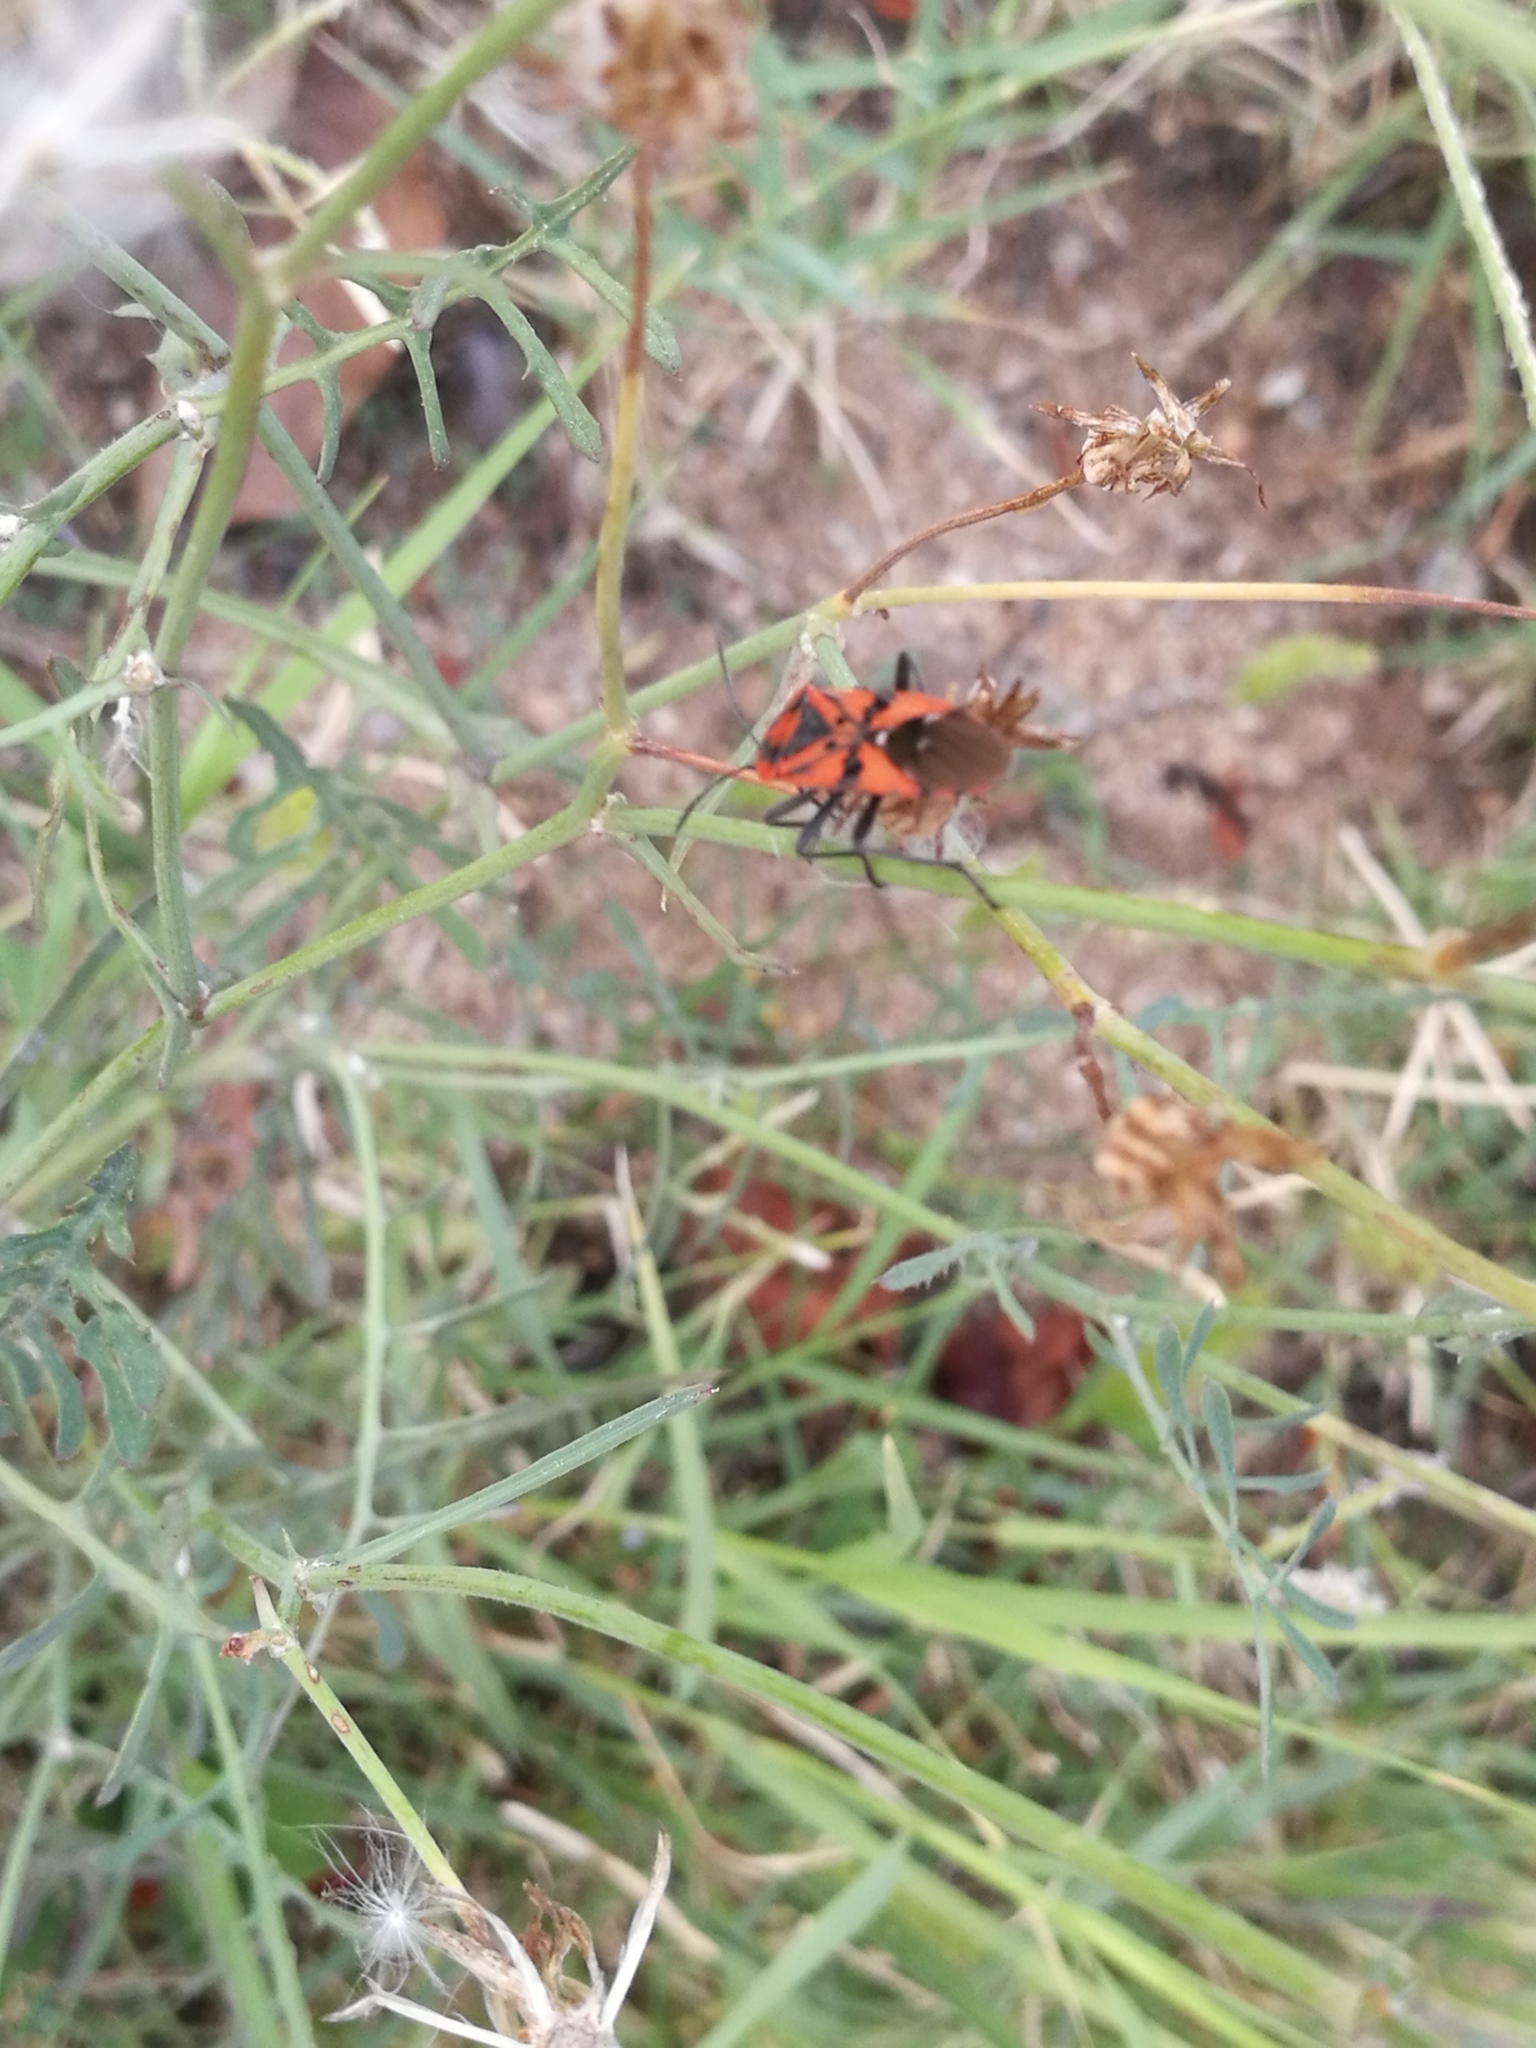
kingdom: Animalia
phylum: Arthropoda
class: Insecta
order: Hemiptera
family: Lygaeidae
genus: Spilostethus
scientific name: Spilostethus pandurus
